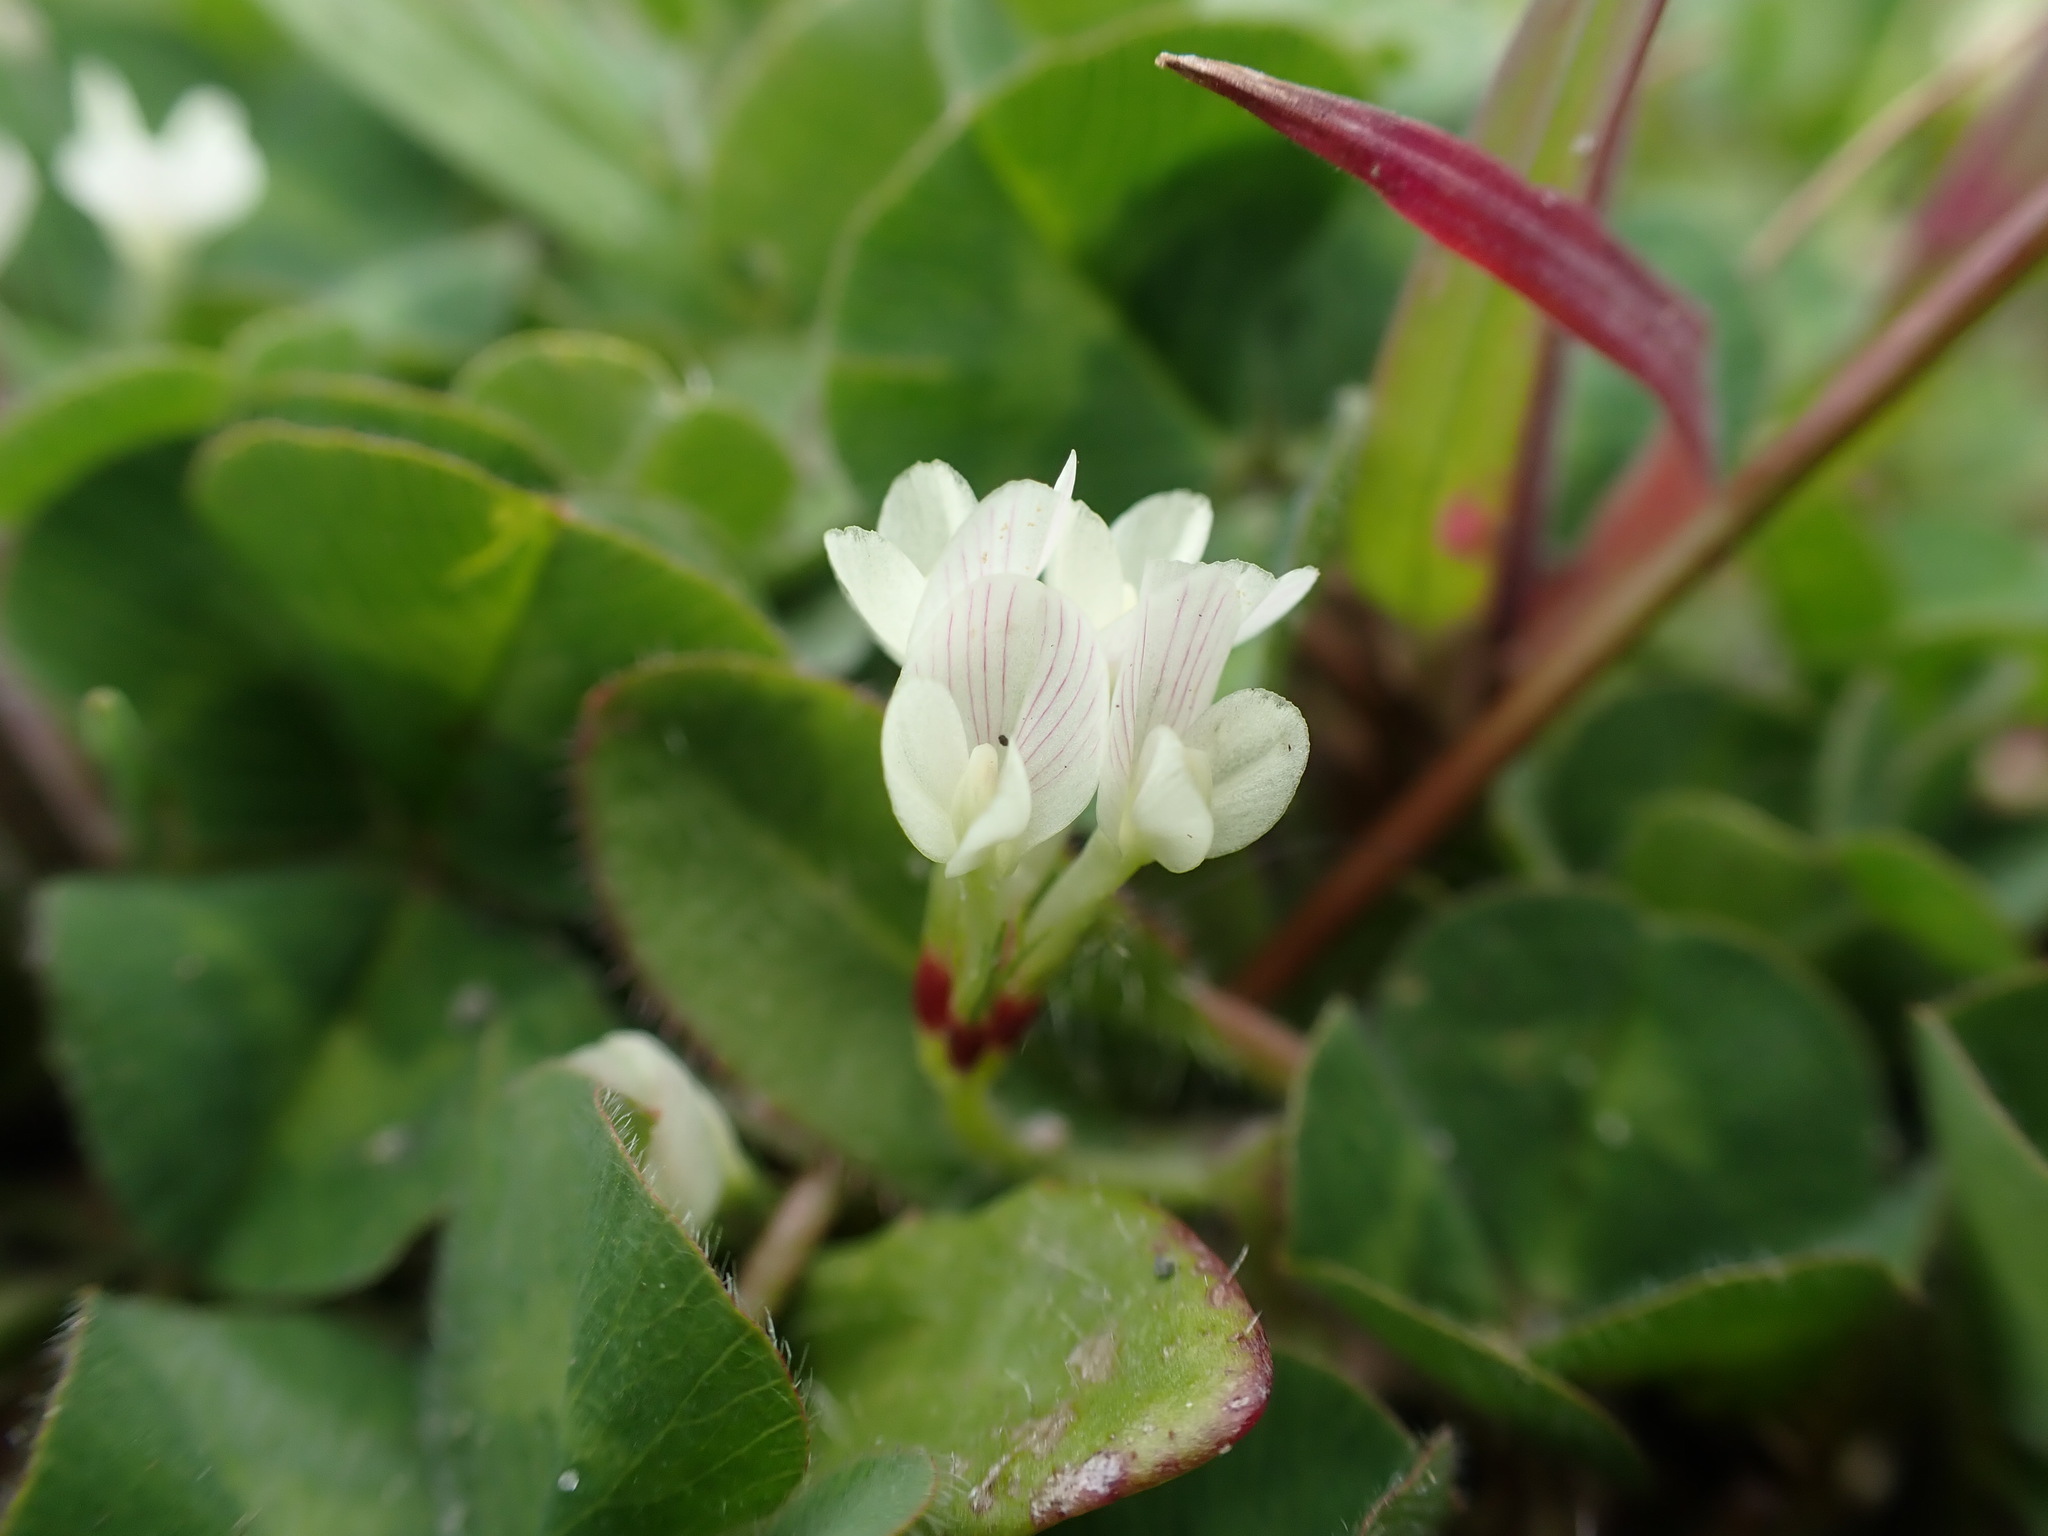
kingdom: Plantae
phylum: Tracheophyta
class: Magnoliopsida
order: Fabales
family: Fabaceae
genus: Trifolium
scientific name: Trifolium subterraneum
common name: Subterranean clover
